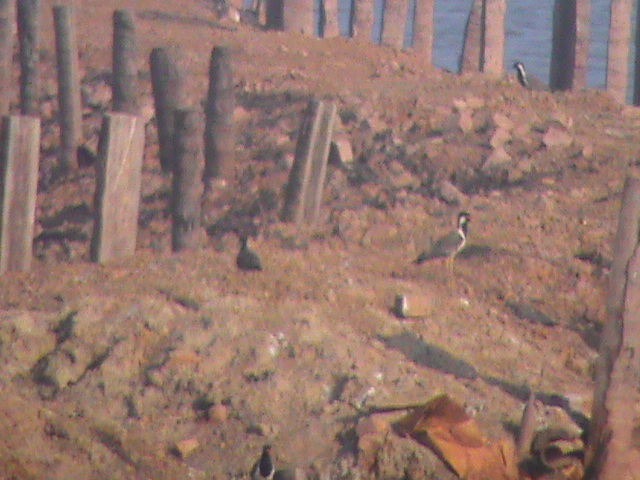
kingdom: Animalia
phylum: Chordata
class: Aves
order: Charadriiformes
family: Charadriidae
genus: Vanellus
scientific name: Vanellus indicus
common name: Red-wattled lapwing
